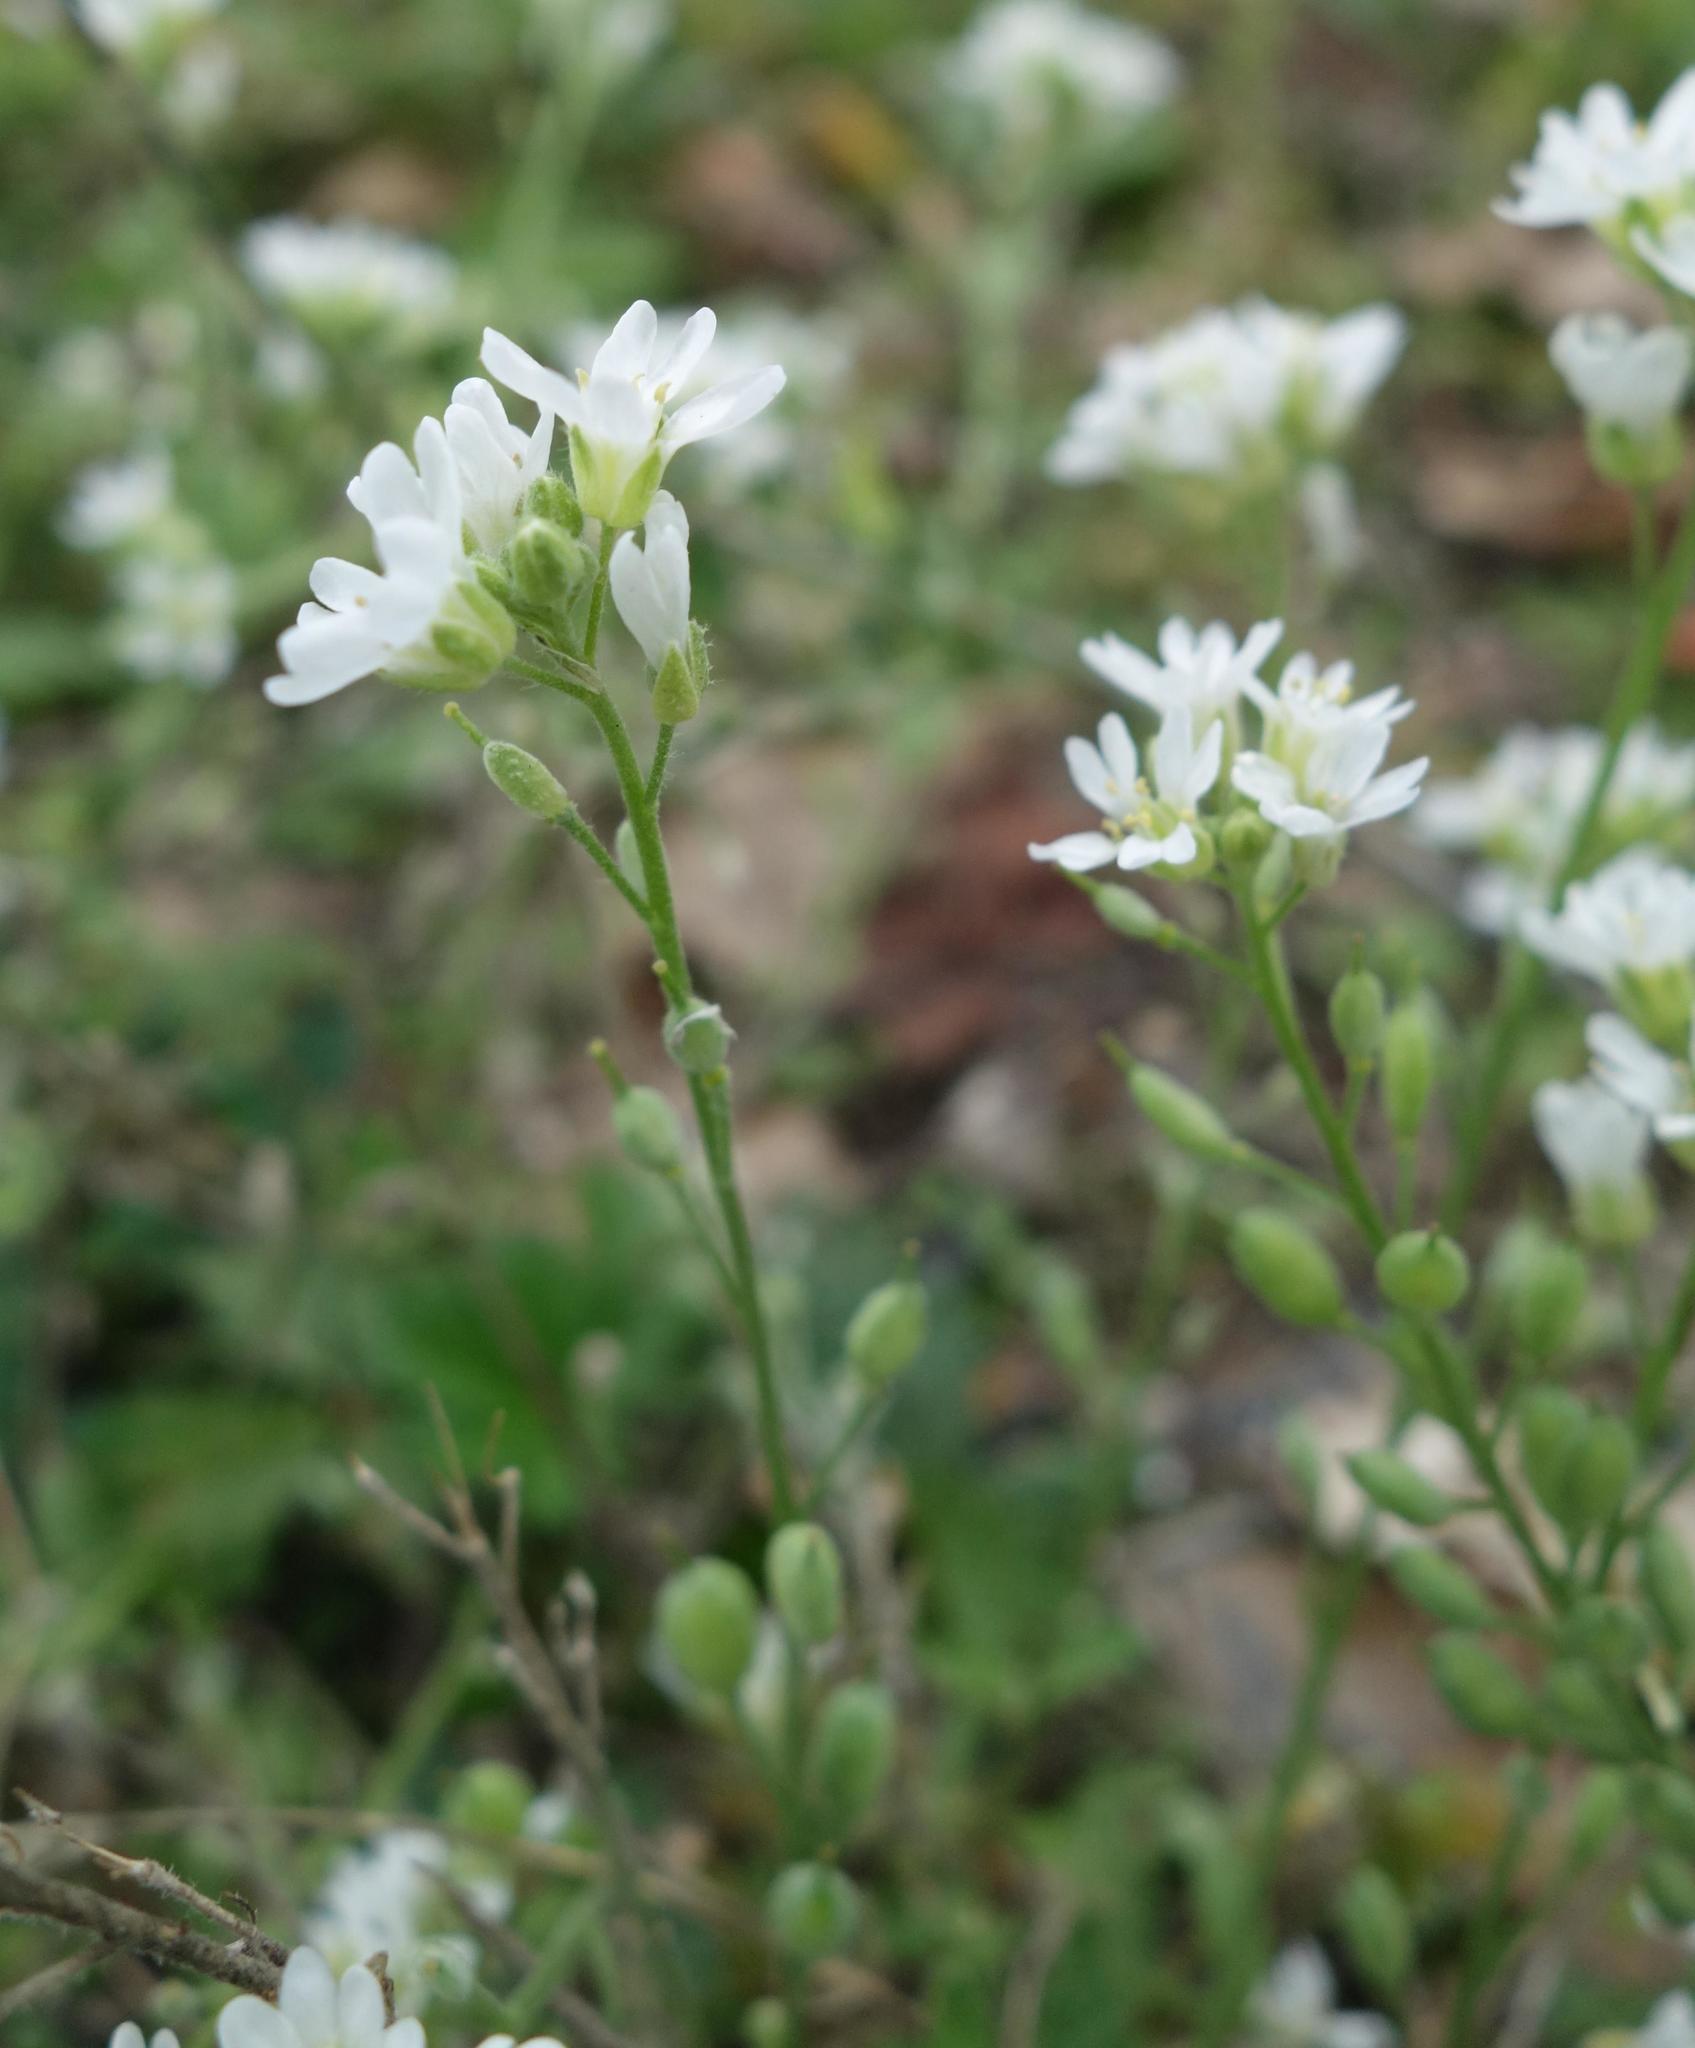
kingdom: Plantae
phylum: Tracheophyta
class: Magnoliopsida
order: Brassicales
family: Brassicaceae
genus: Berteroa
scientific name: Berteroa incana
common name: Hoary alison
